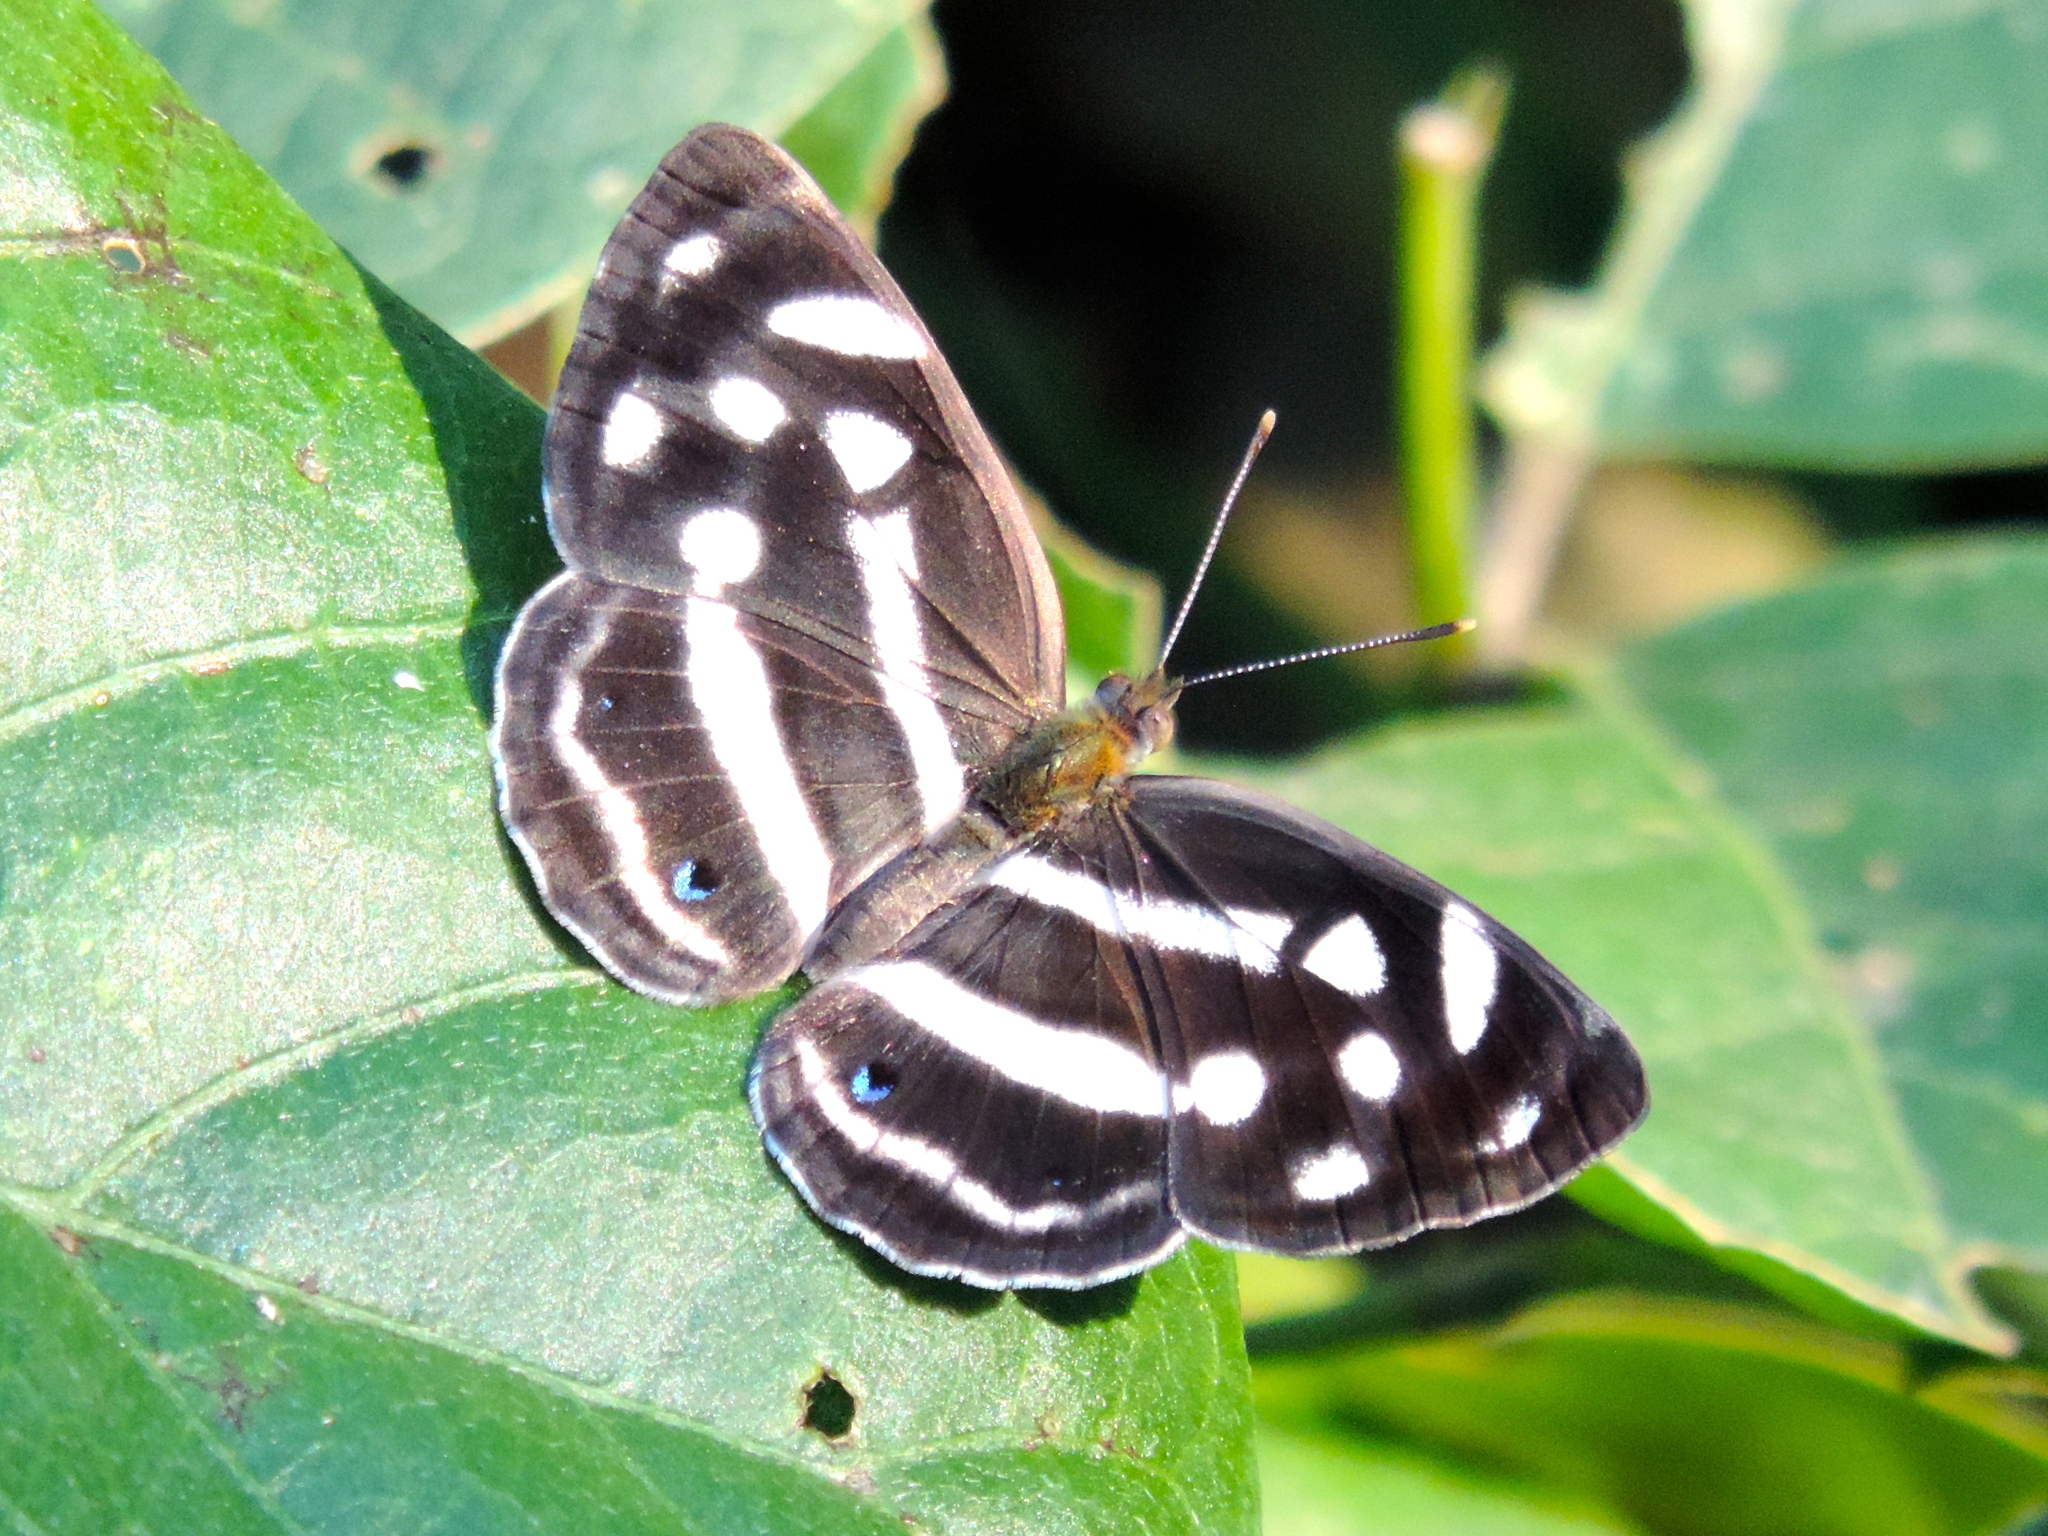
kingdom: Animalia
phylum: Arthropoda
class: Insecta
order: Lepidoptera
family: Nymphalidae
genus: Dynamine
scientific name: Dynamine mylitta
